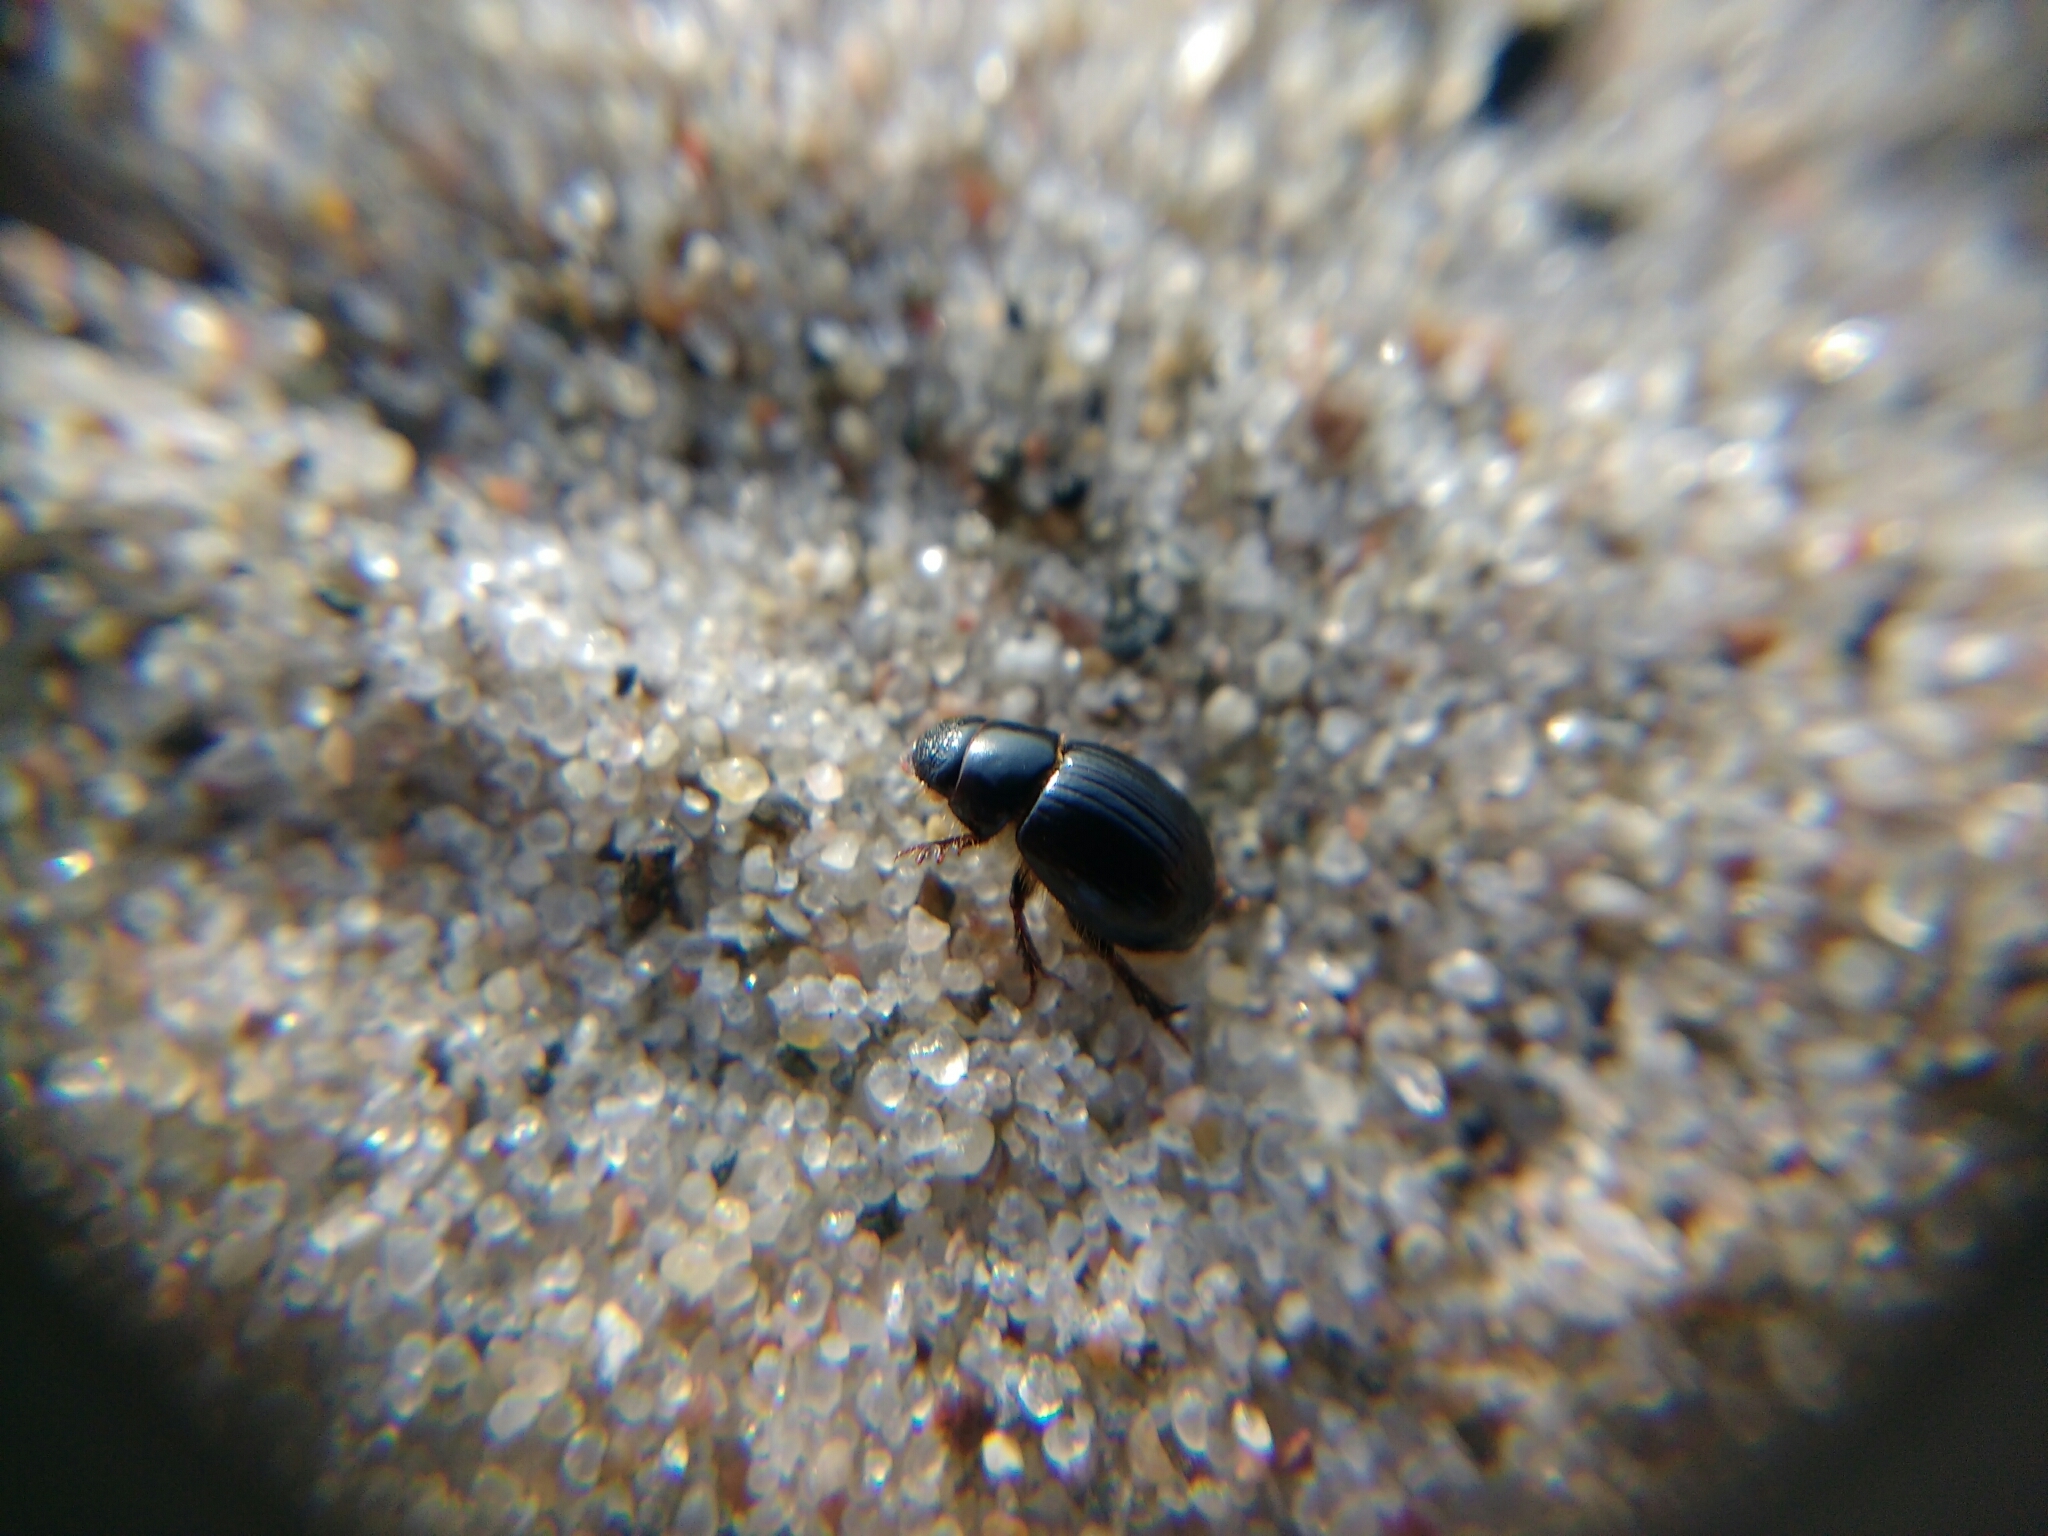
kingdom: Animalia
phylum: Arthropoda
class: Insecta
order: Coleoptera
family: Scarabaeidae
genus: Aegialia
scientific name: Aegialia arenaria
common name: Dune sand scarab beetle
